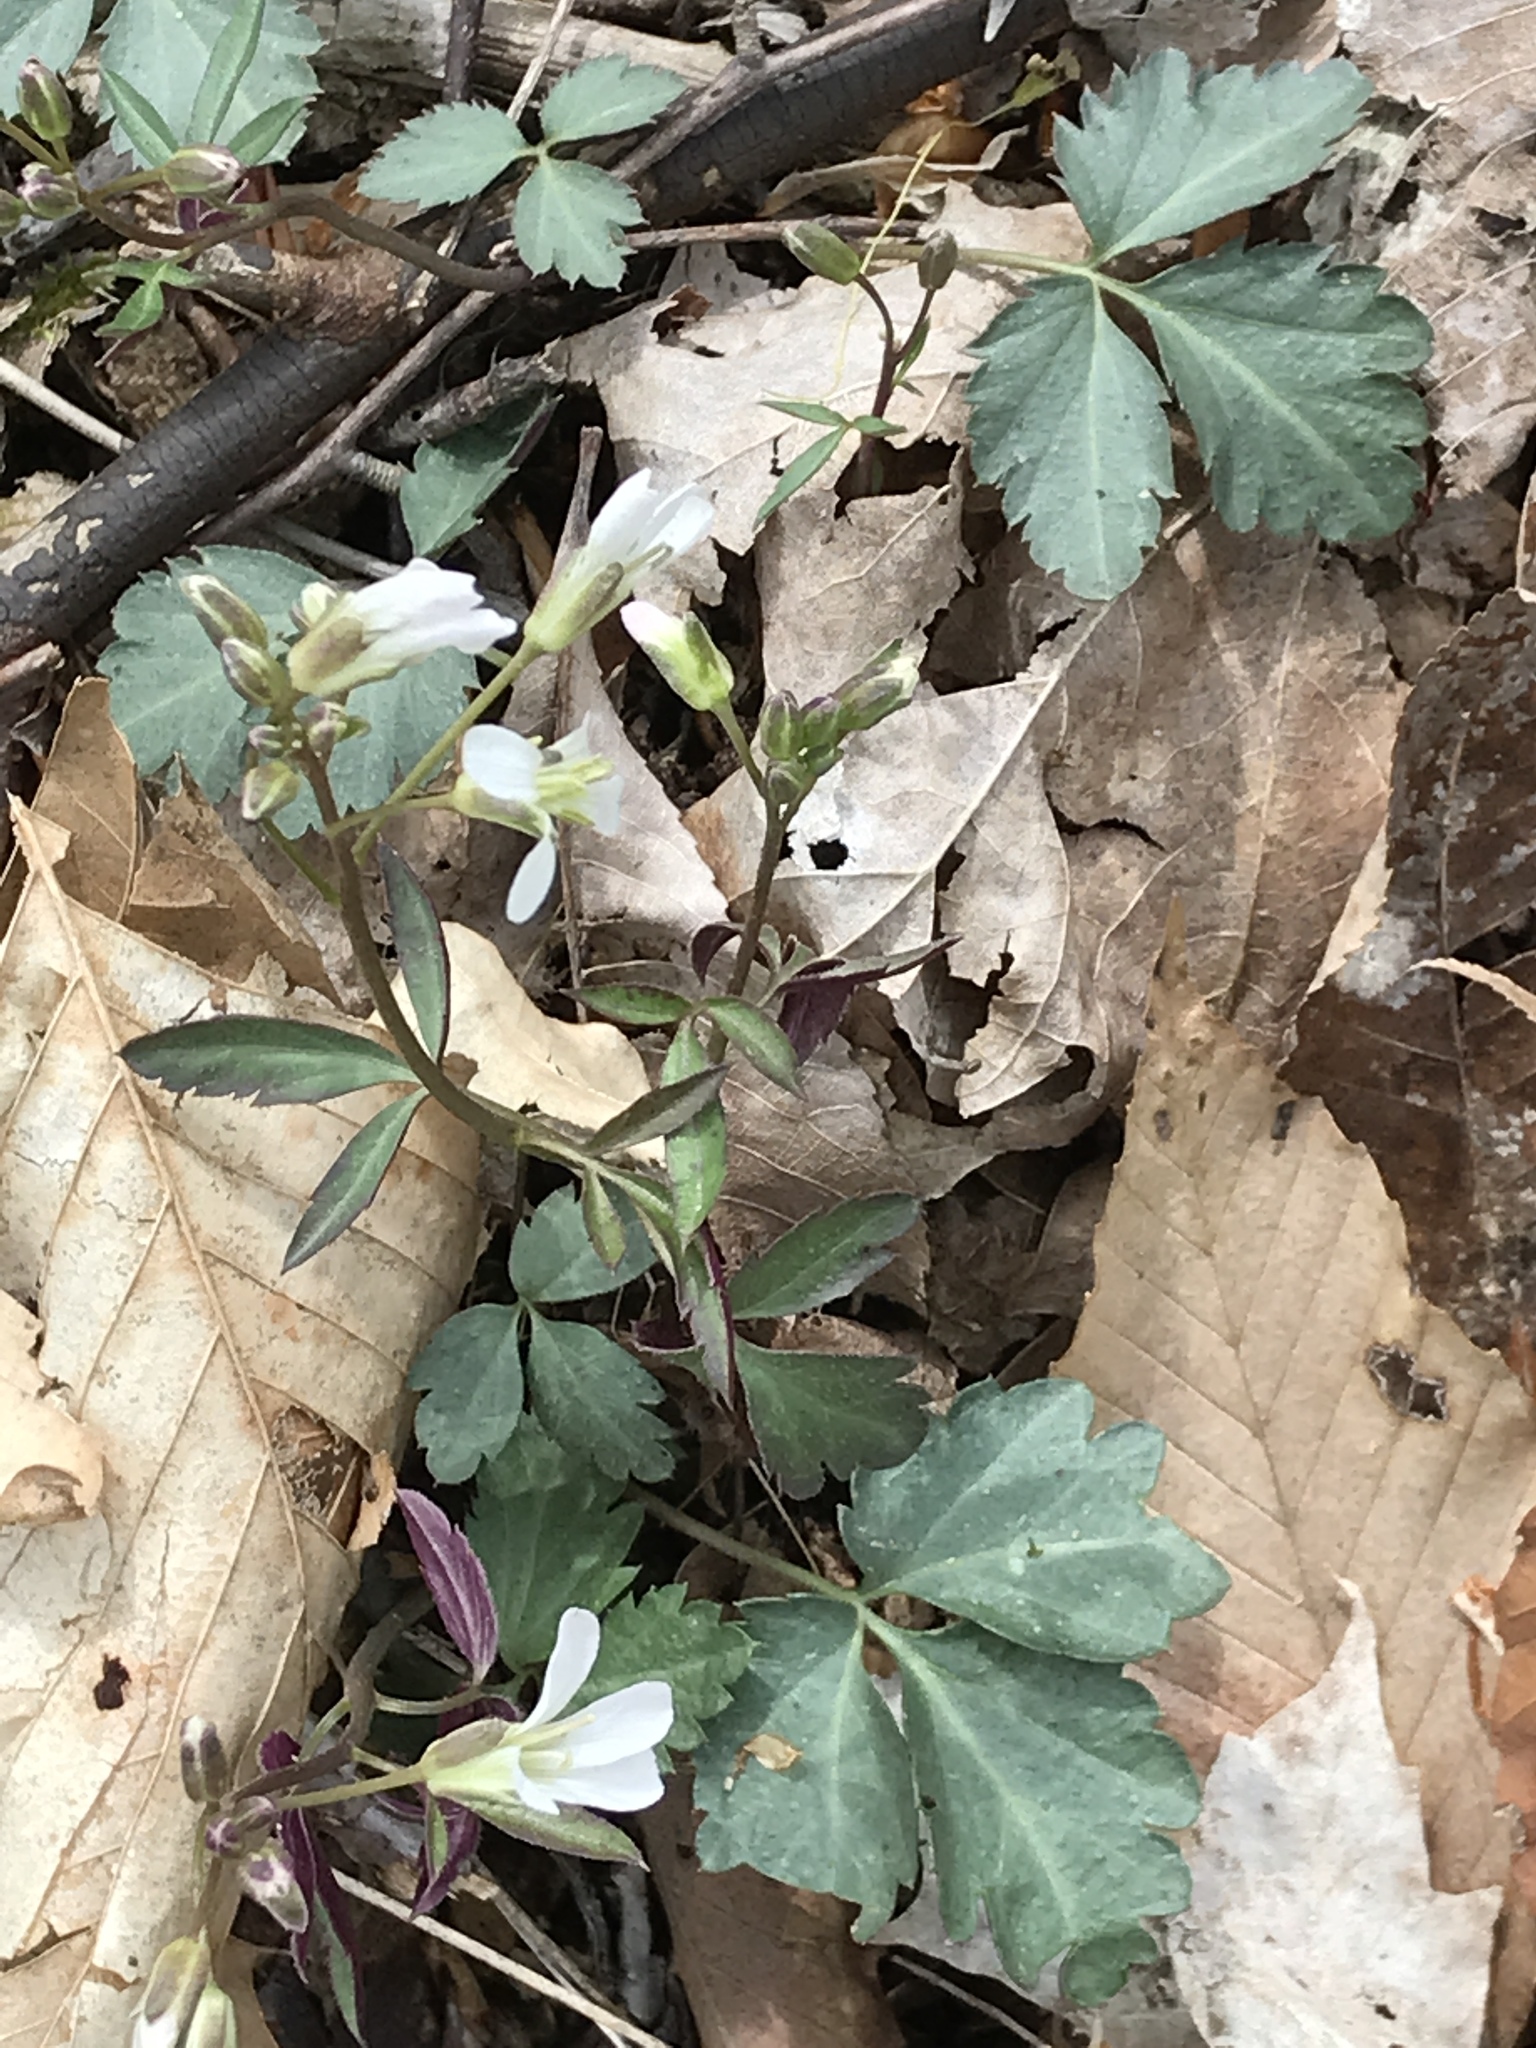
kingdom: Plantae
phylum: Tracheophyta
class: Magnoliopsida
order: Brassicales
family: Brassicaceae
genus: Cardamine
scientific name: Cardamine angustata
